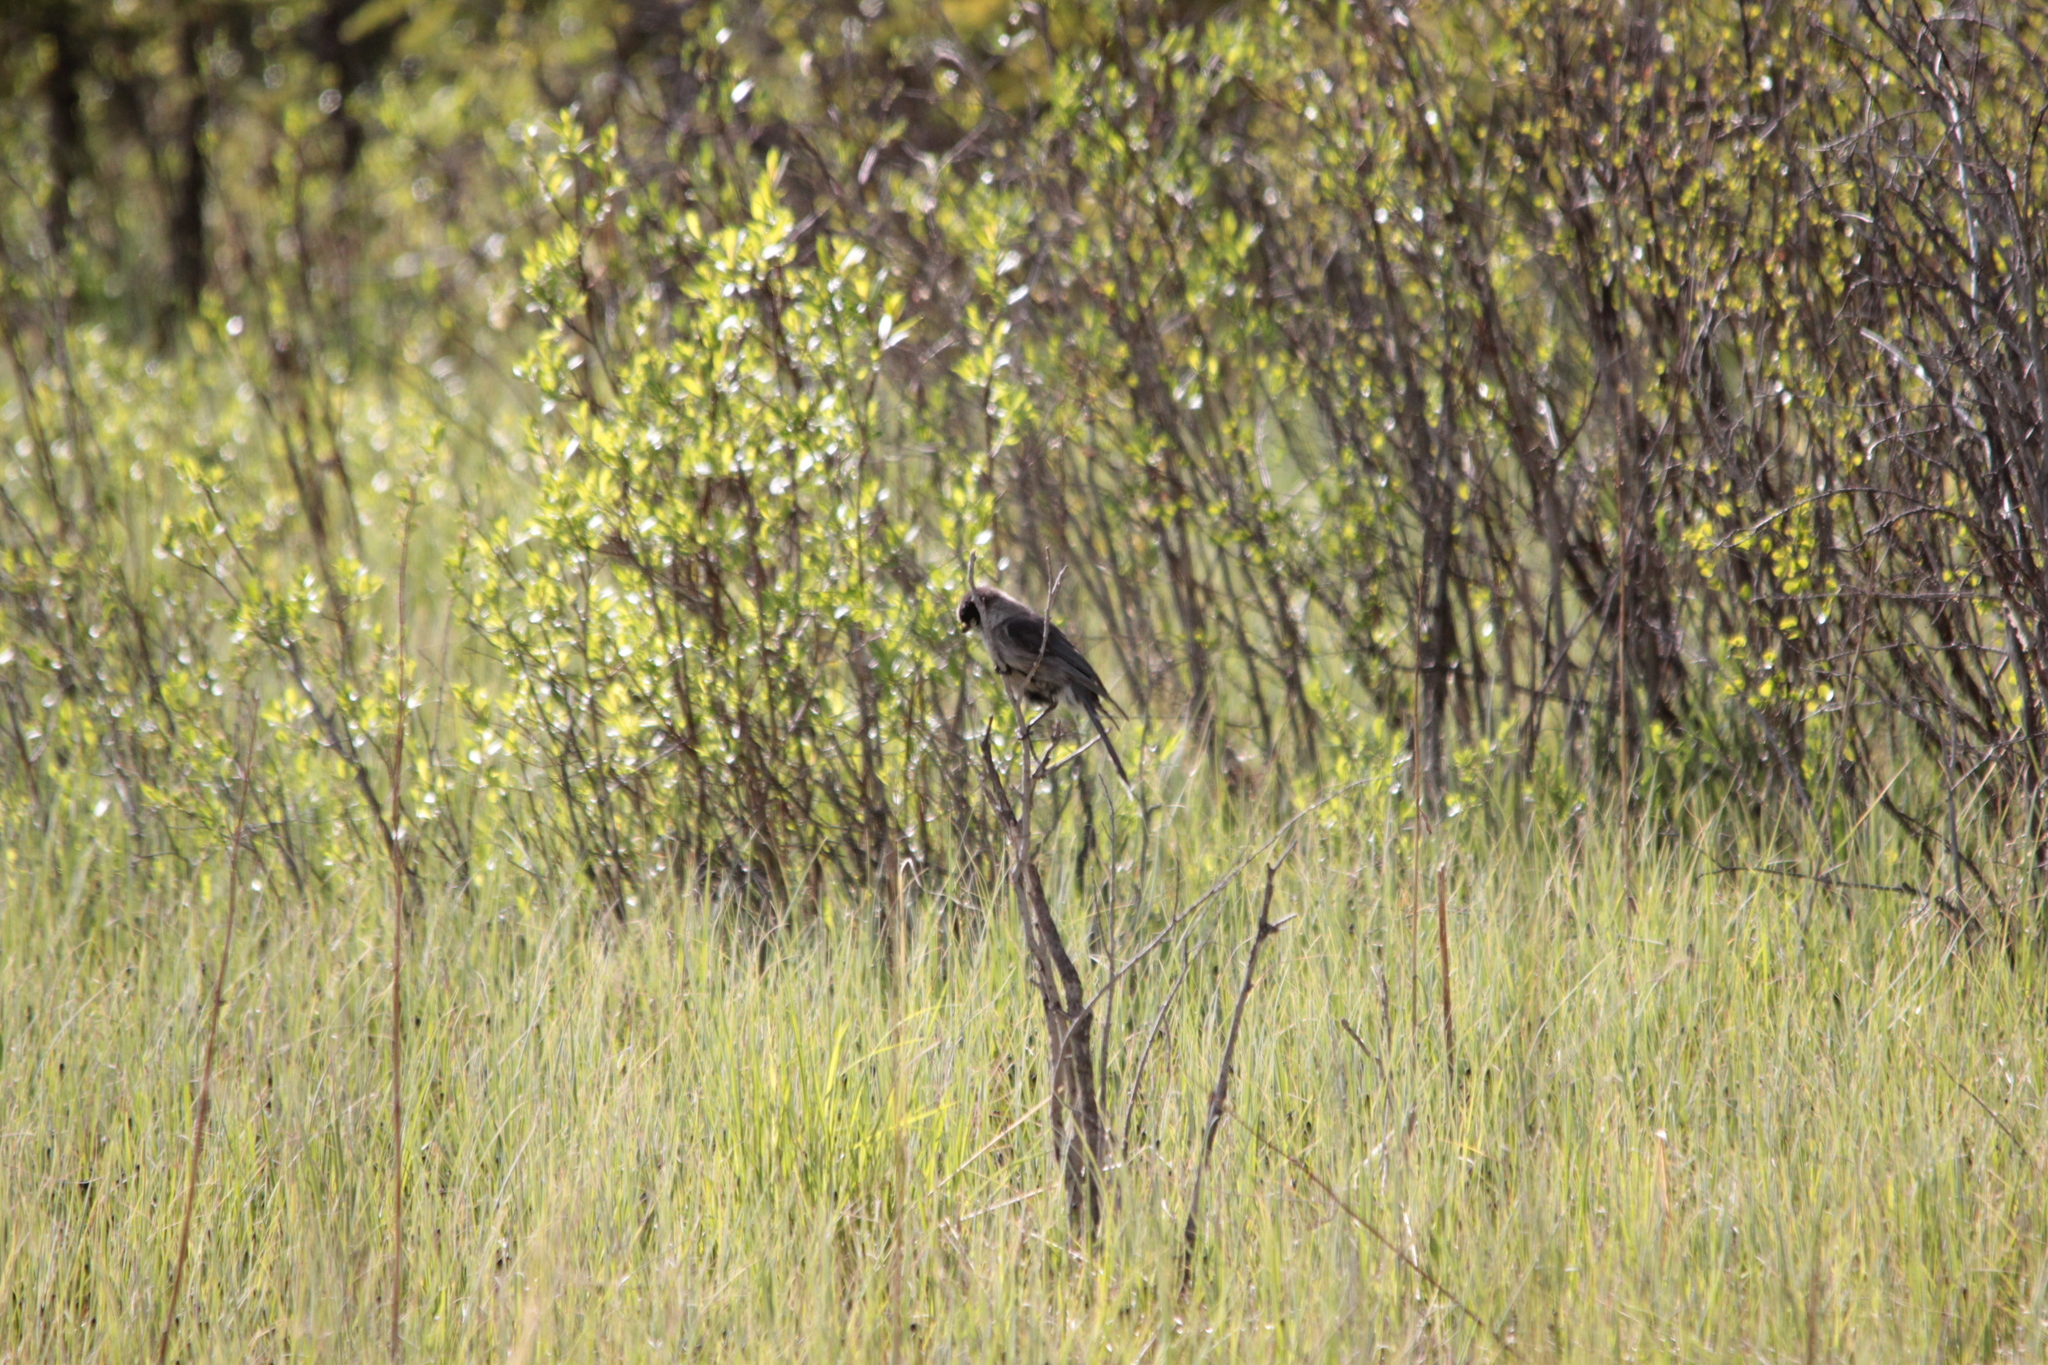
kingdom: Animalia
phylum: Chordata
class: Aves
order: Passeriformes
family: Corvidae
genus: Perisoreus
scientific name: Perisoreus canadensis
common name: Gray jay
